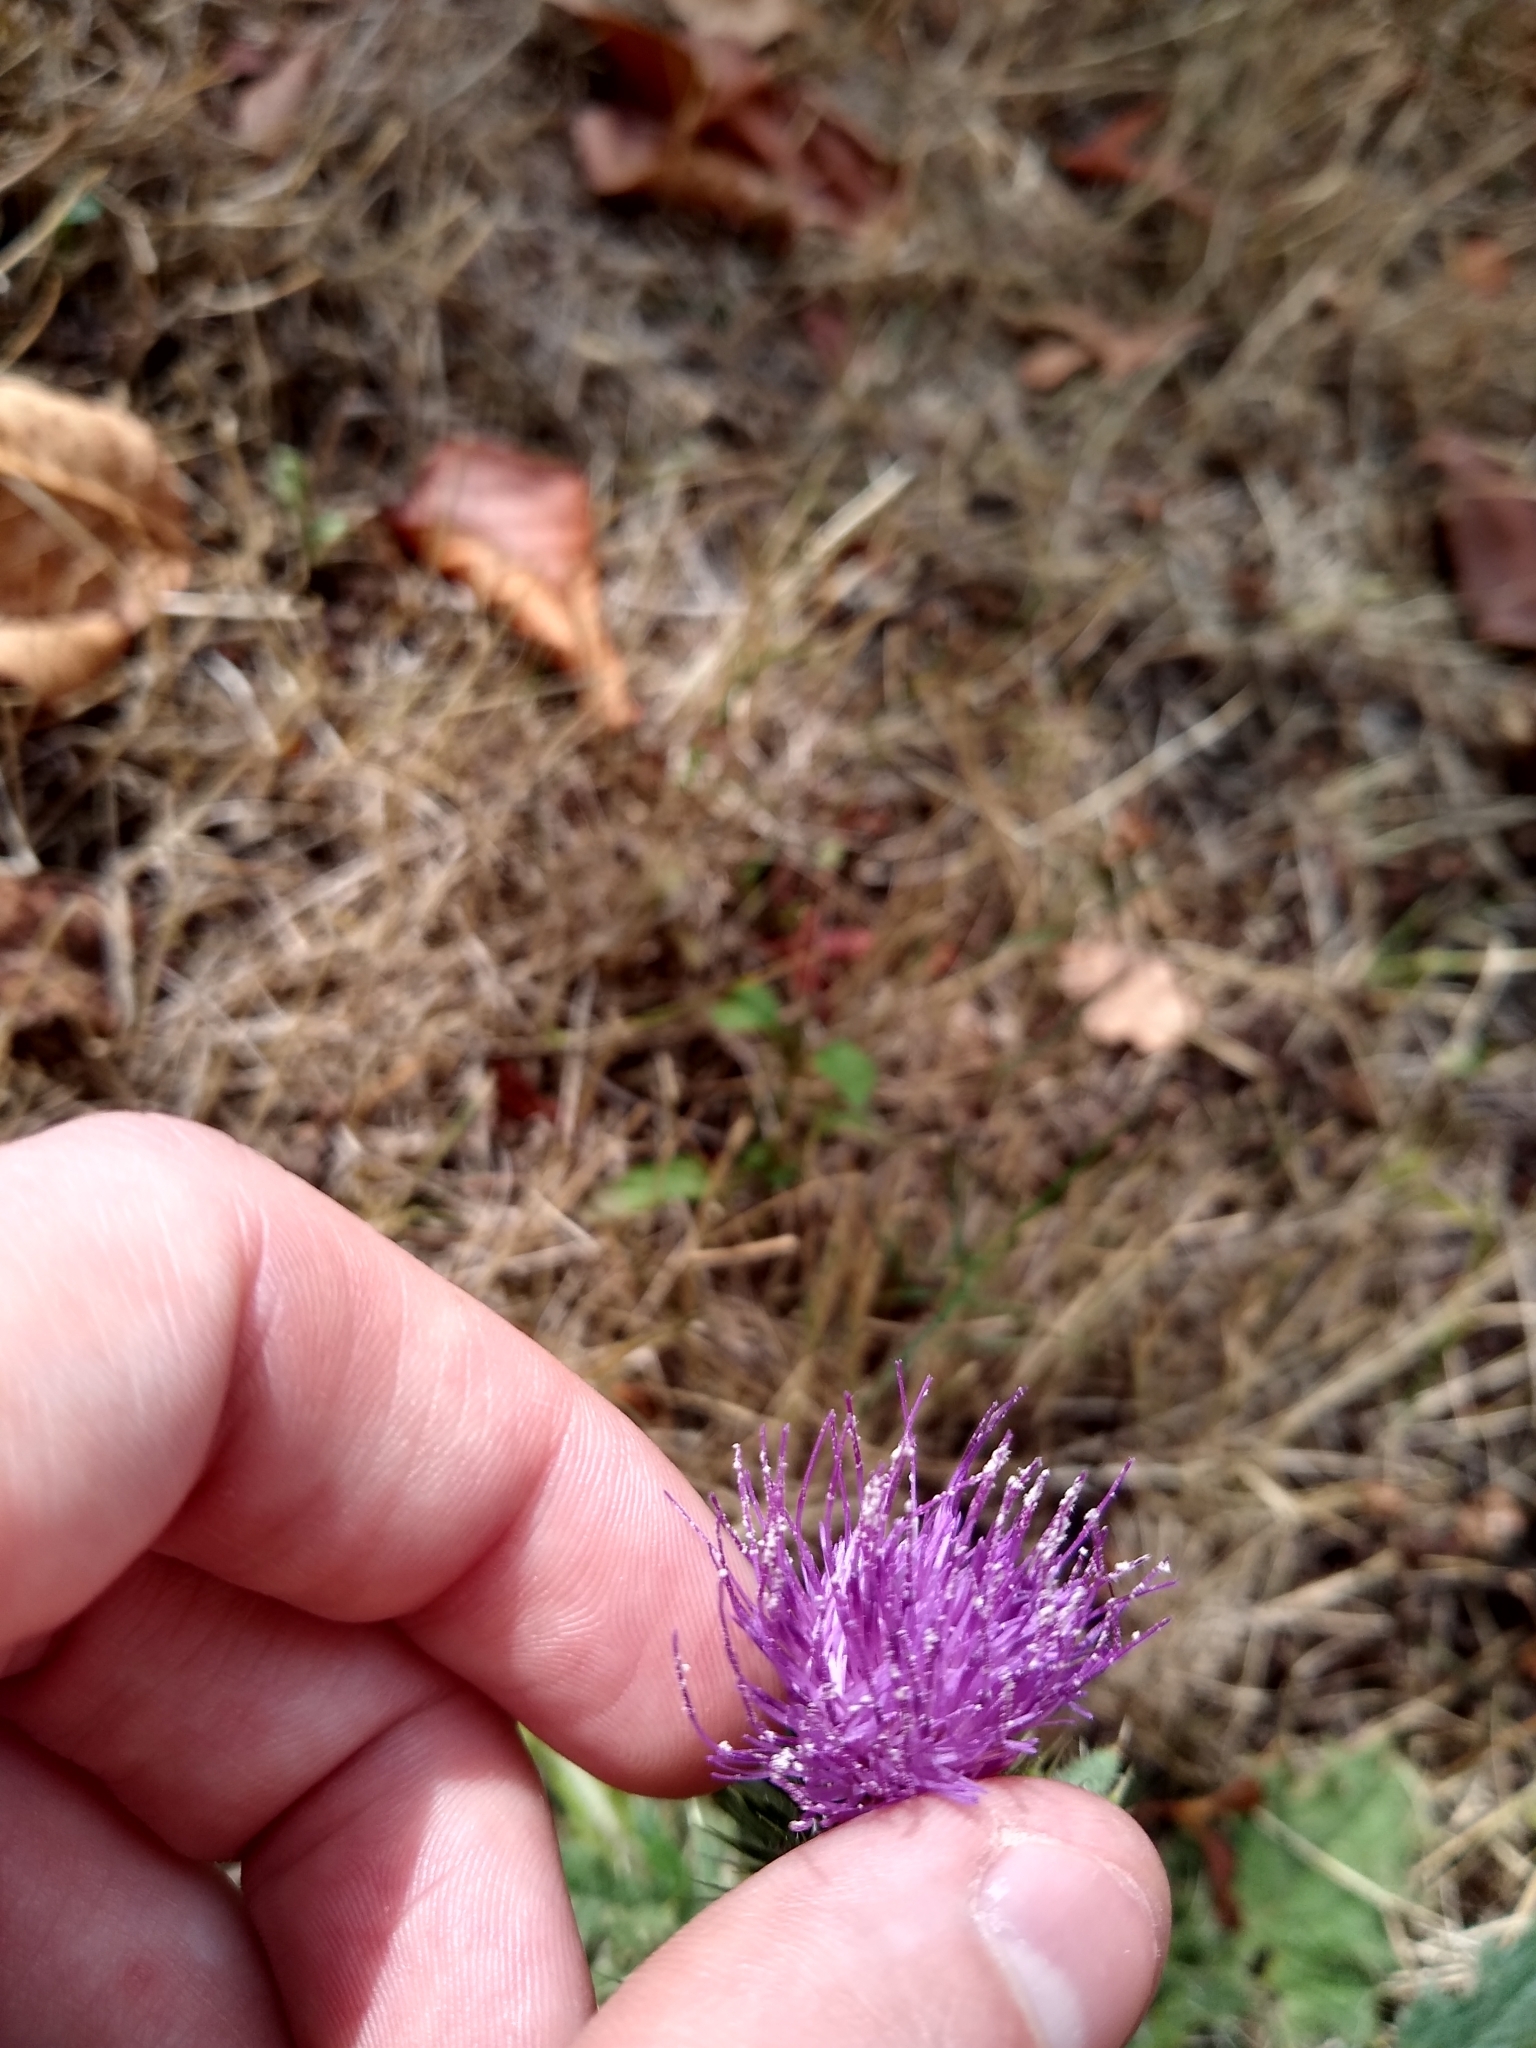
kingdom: Plantae
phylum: Tracheophyta
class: Magnoliopsida
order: Asterales
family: Asteraceae
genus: Cirsium
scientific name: Cirsium vulgare
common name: Bull thistle
